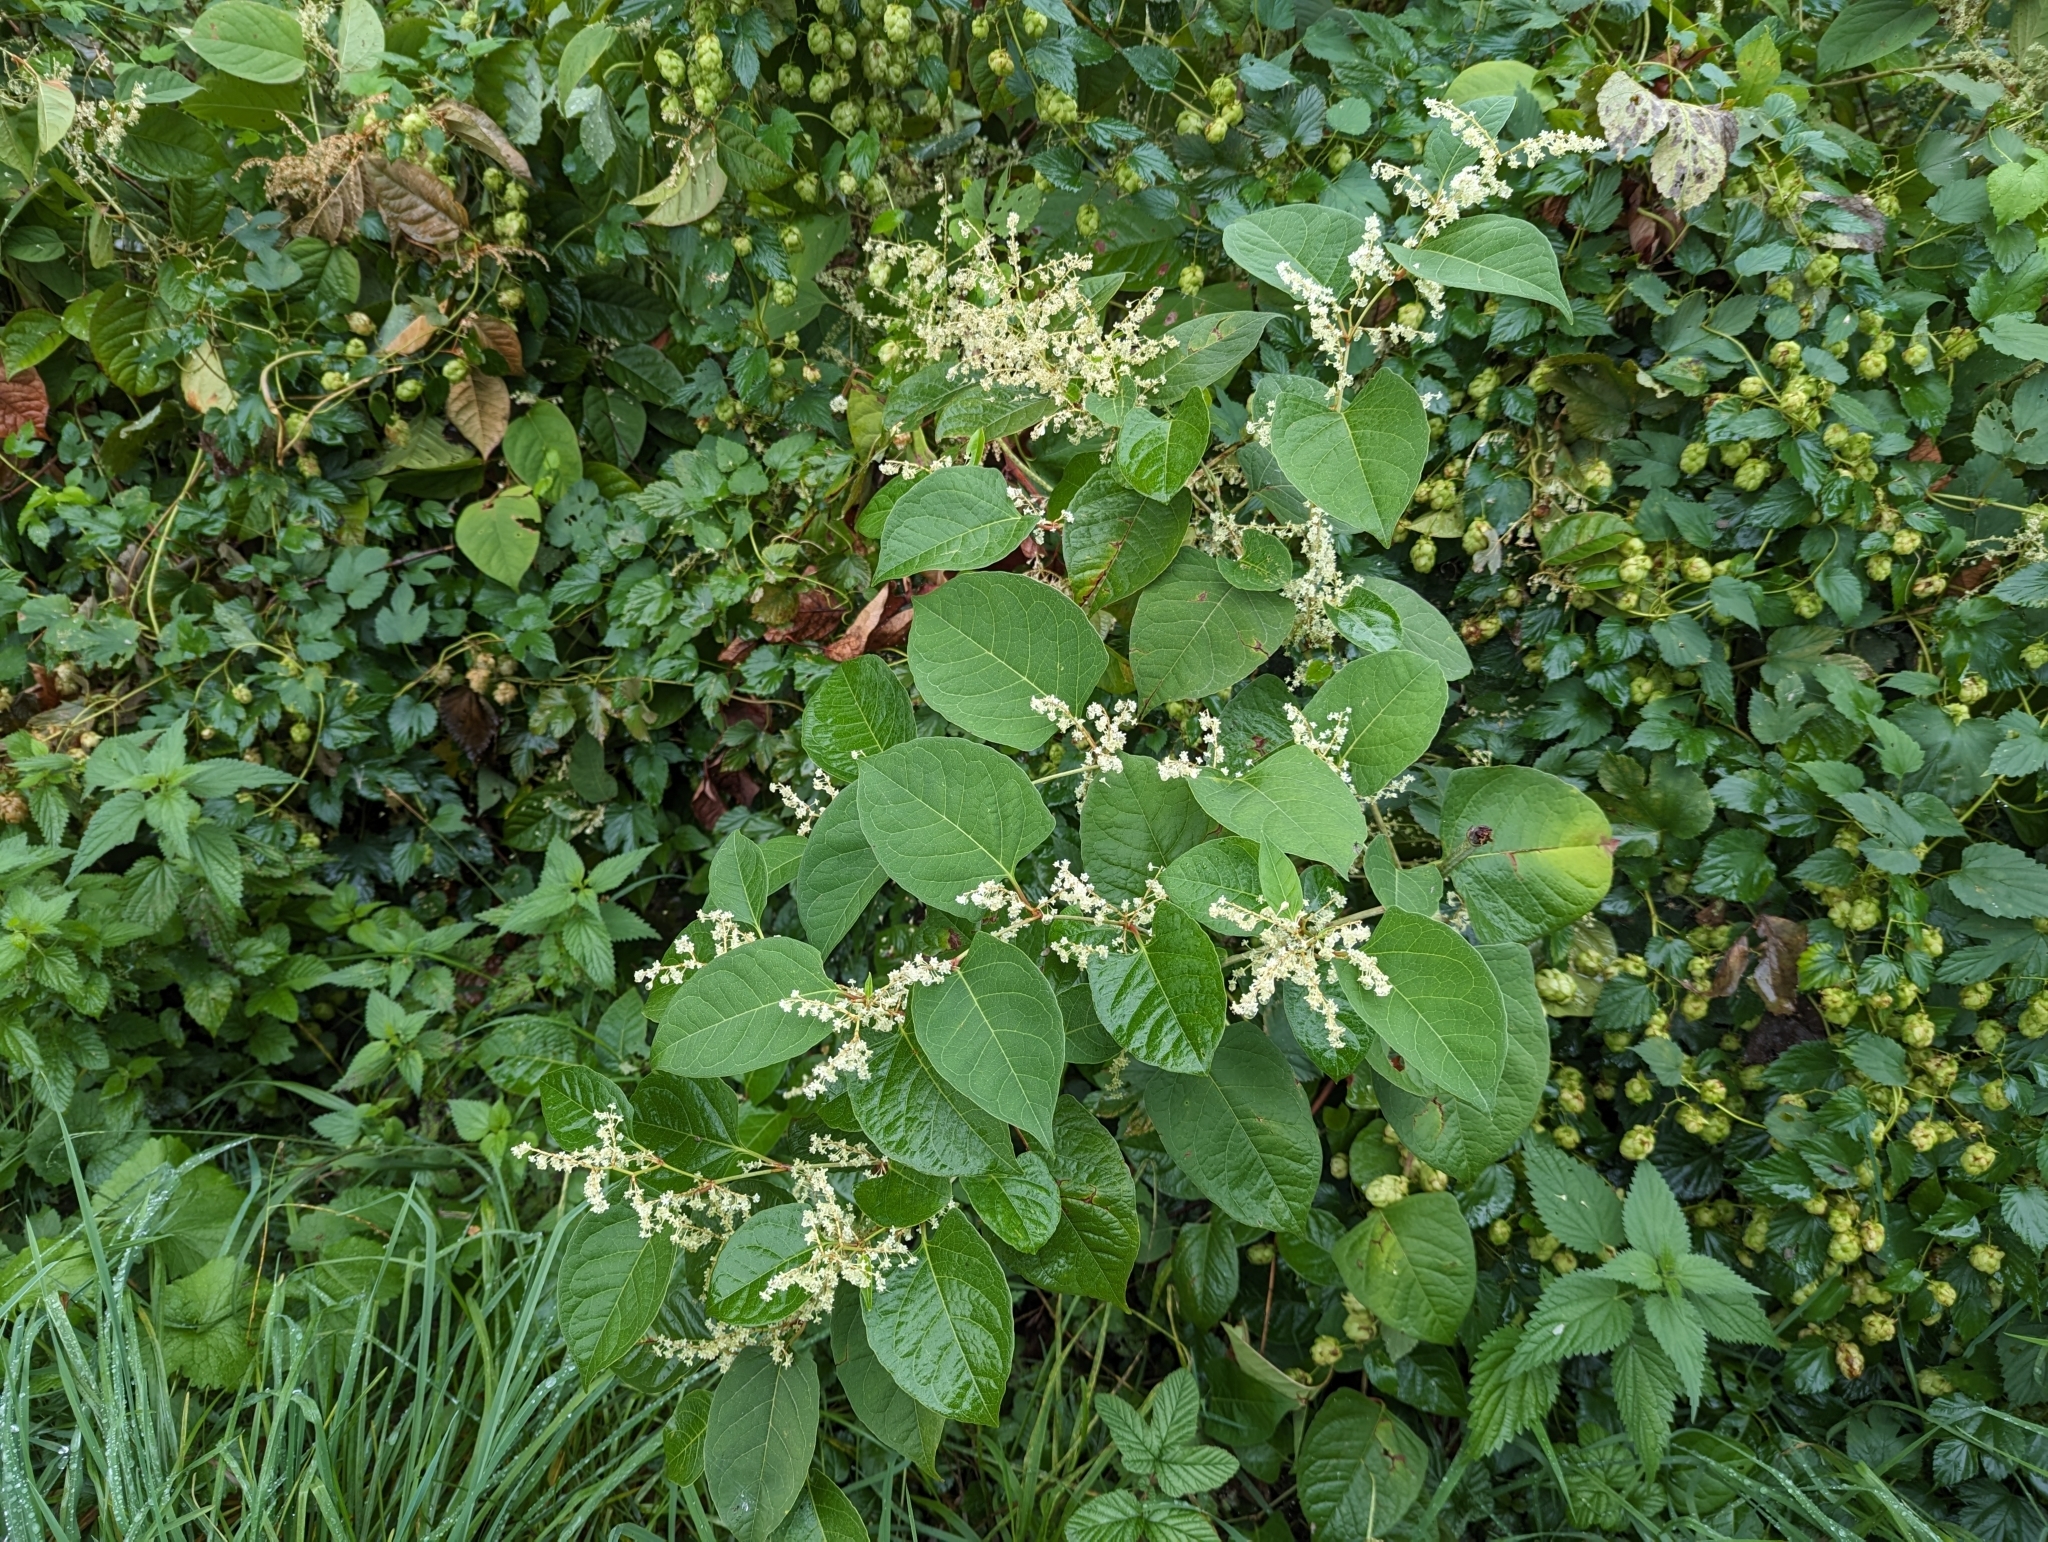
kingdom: Plantae
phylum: Tracheophyta
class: Magnoliopsida
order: Caryophyllales
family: Polygonaceae
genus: Reynoutria
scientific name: Reynoutria japonica
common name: Japanese knotweed
